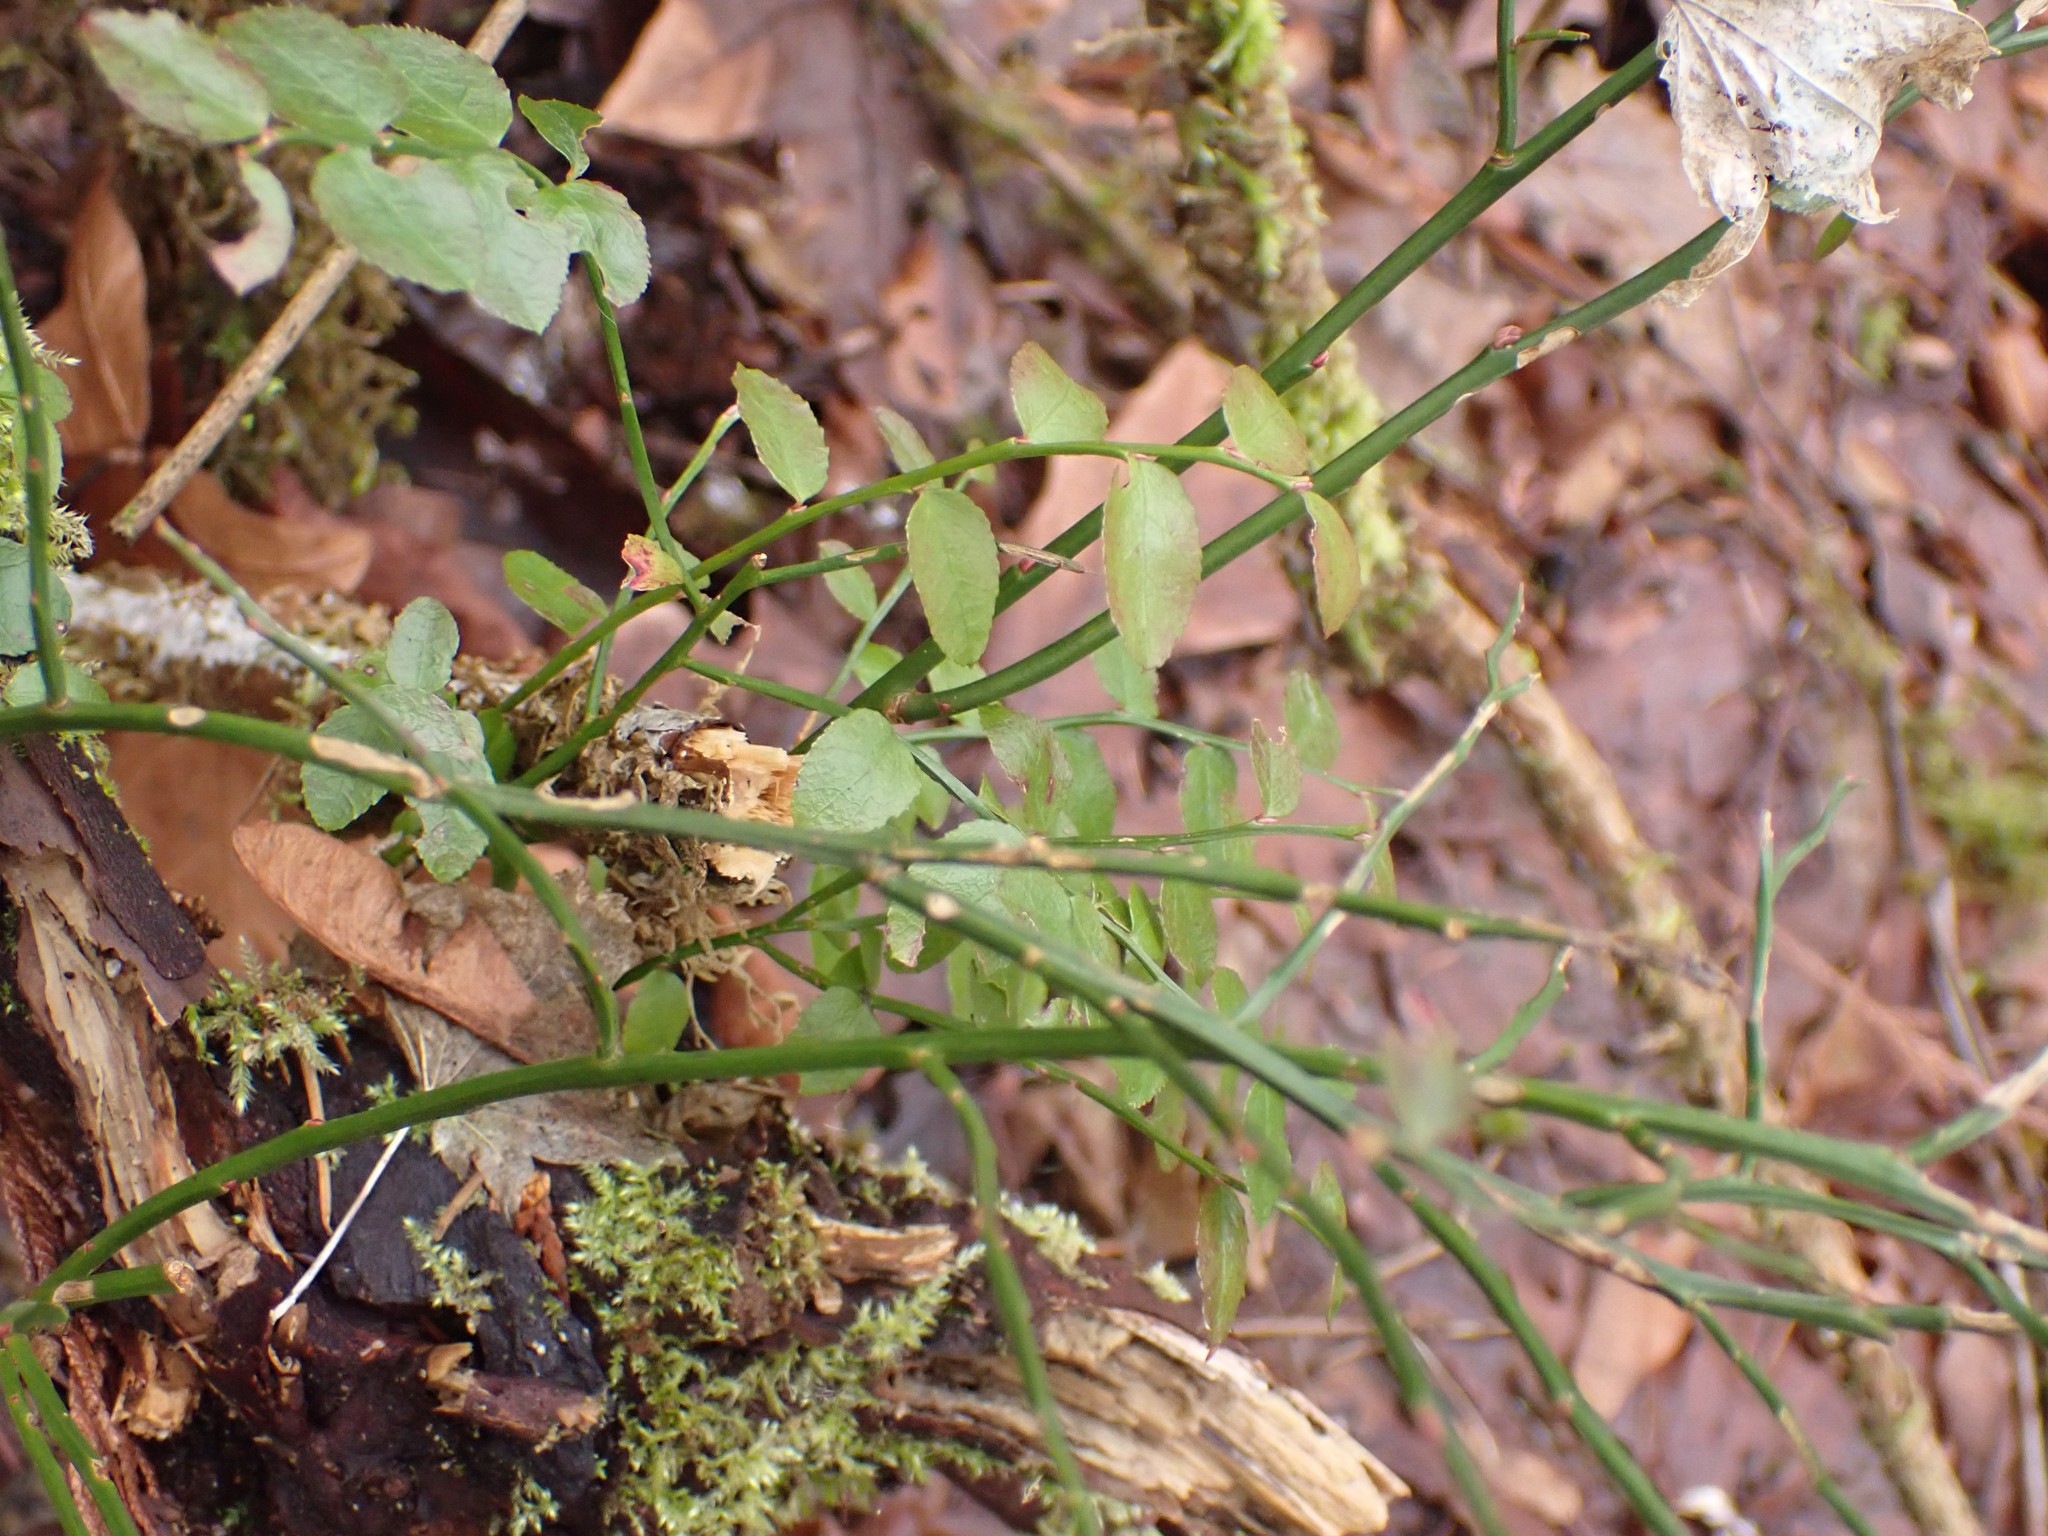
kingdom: Plantae
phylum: Tracheophyta
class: Magnoliopsida
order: Ericales
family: Ericaceae
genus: Vaccinium
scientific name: Vaccinium parvifolium
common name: Red-huckleberry
